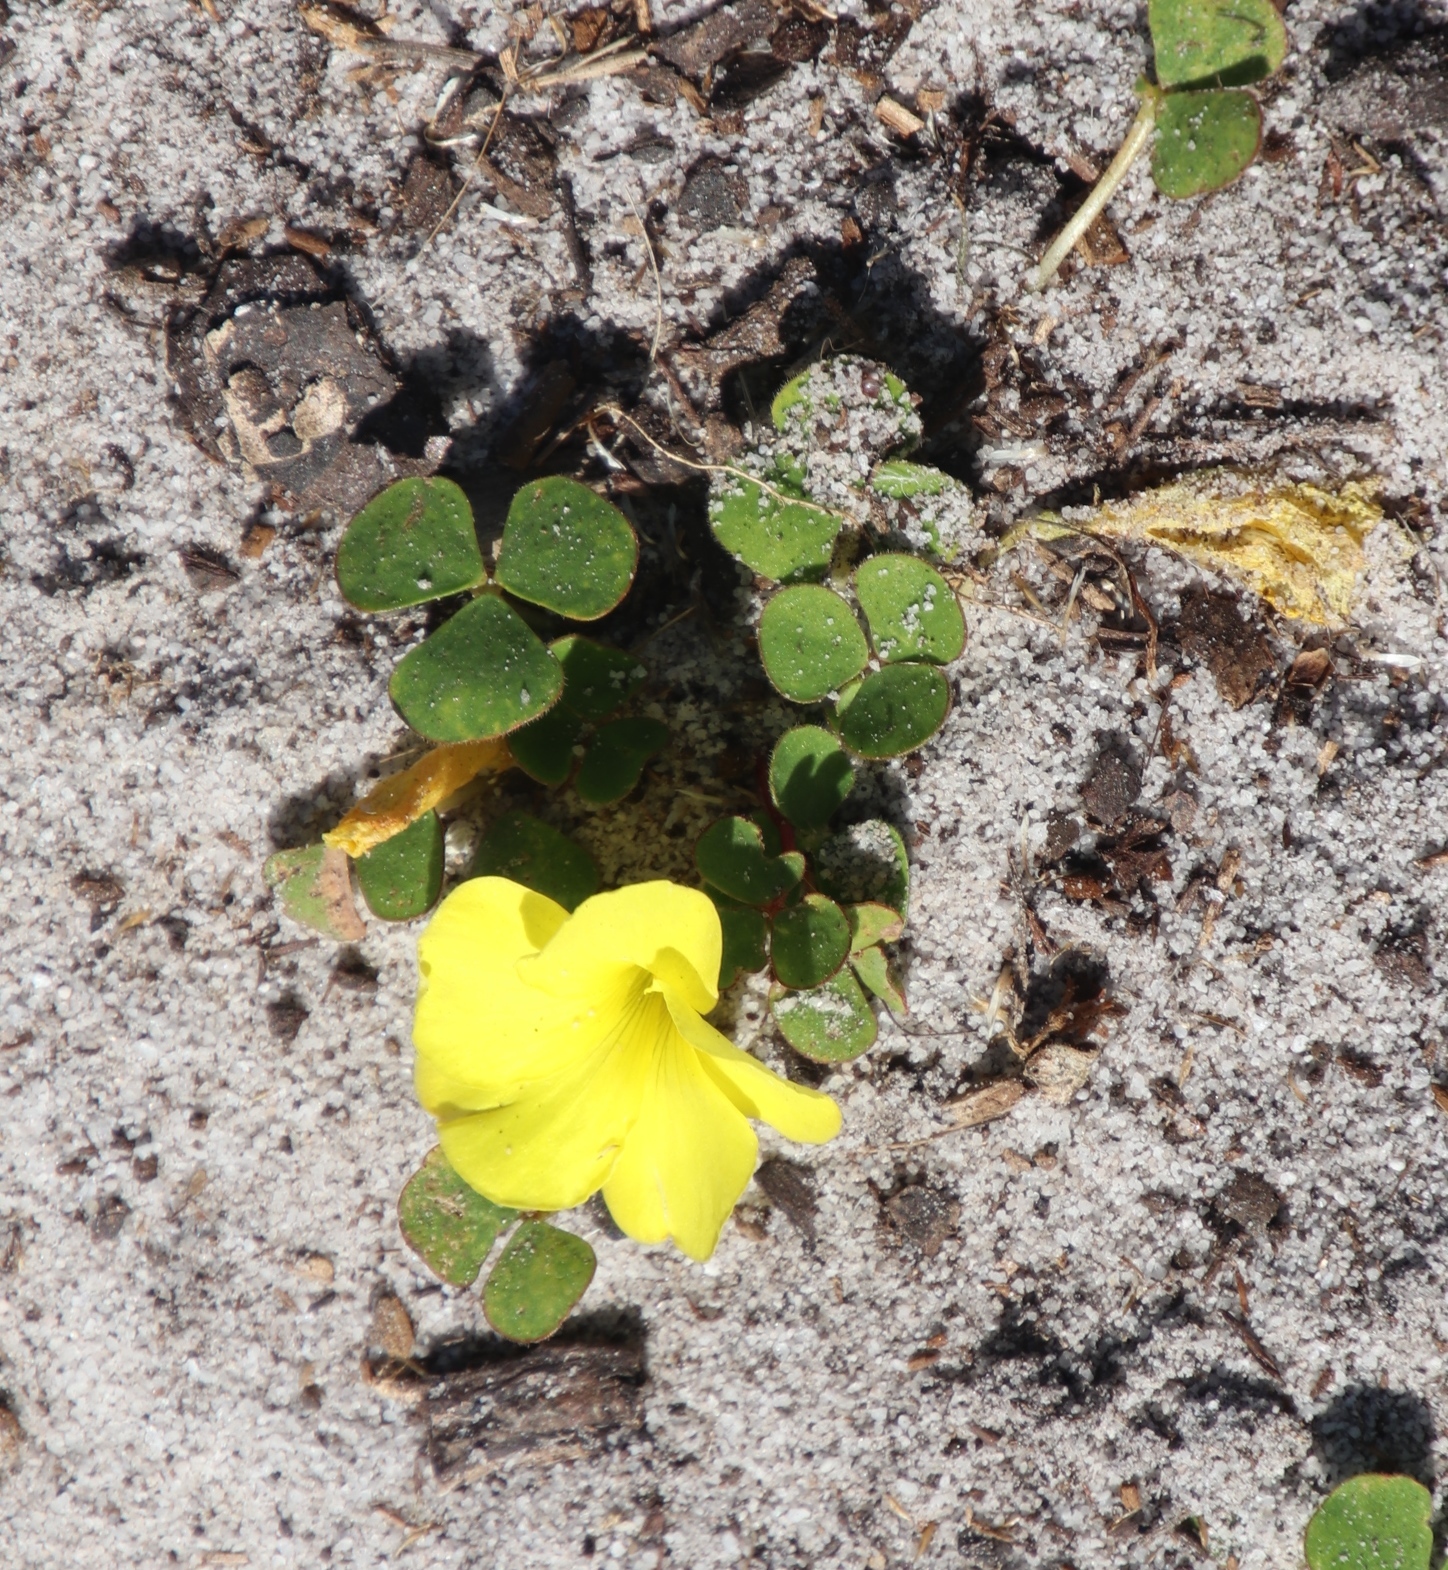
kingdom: Plantae
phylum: Tracheophyta
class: Magnoliopsida
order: Oxalidales
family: Oxalidaceae
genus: Oxalis
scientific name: Oxalis luteola
